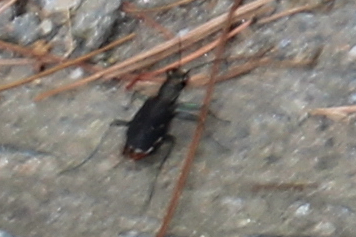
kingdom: Animalia
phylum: Arthropoda
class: Insecta
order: Coleoptera
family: Carabidae
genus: Cicindela
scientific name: Cicindela rufiventris
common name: Eastern red-bellied tiger beetle
